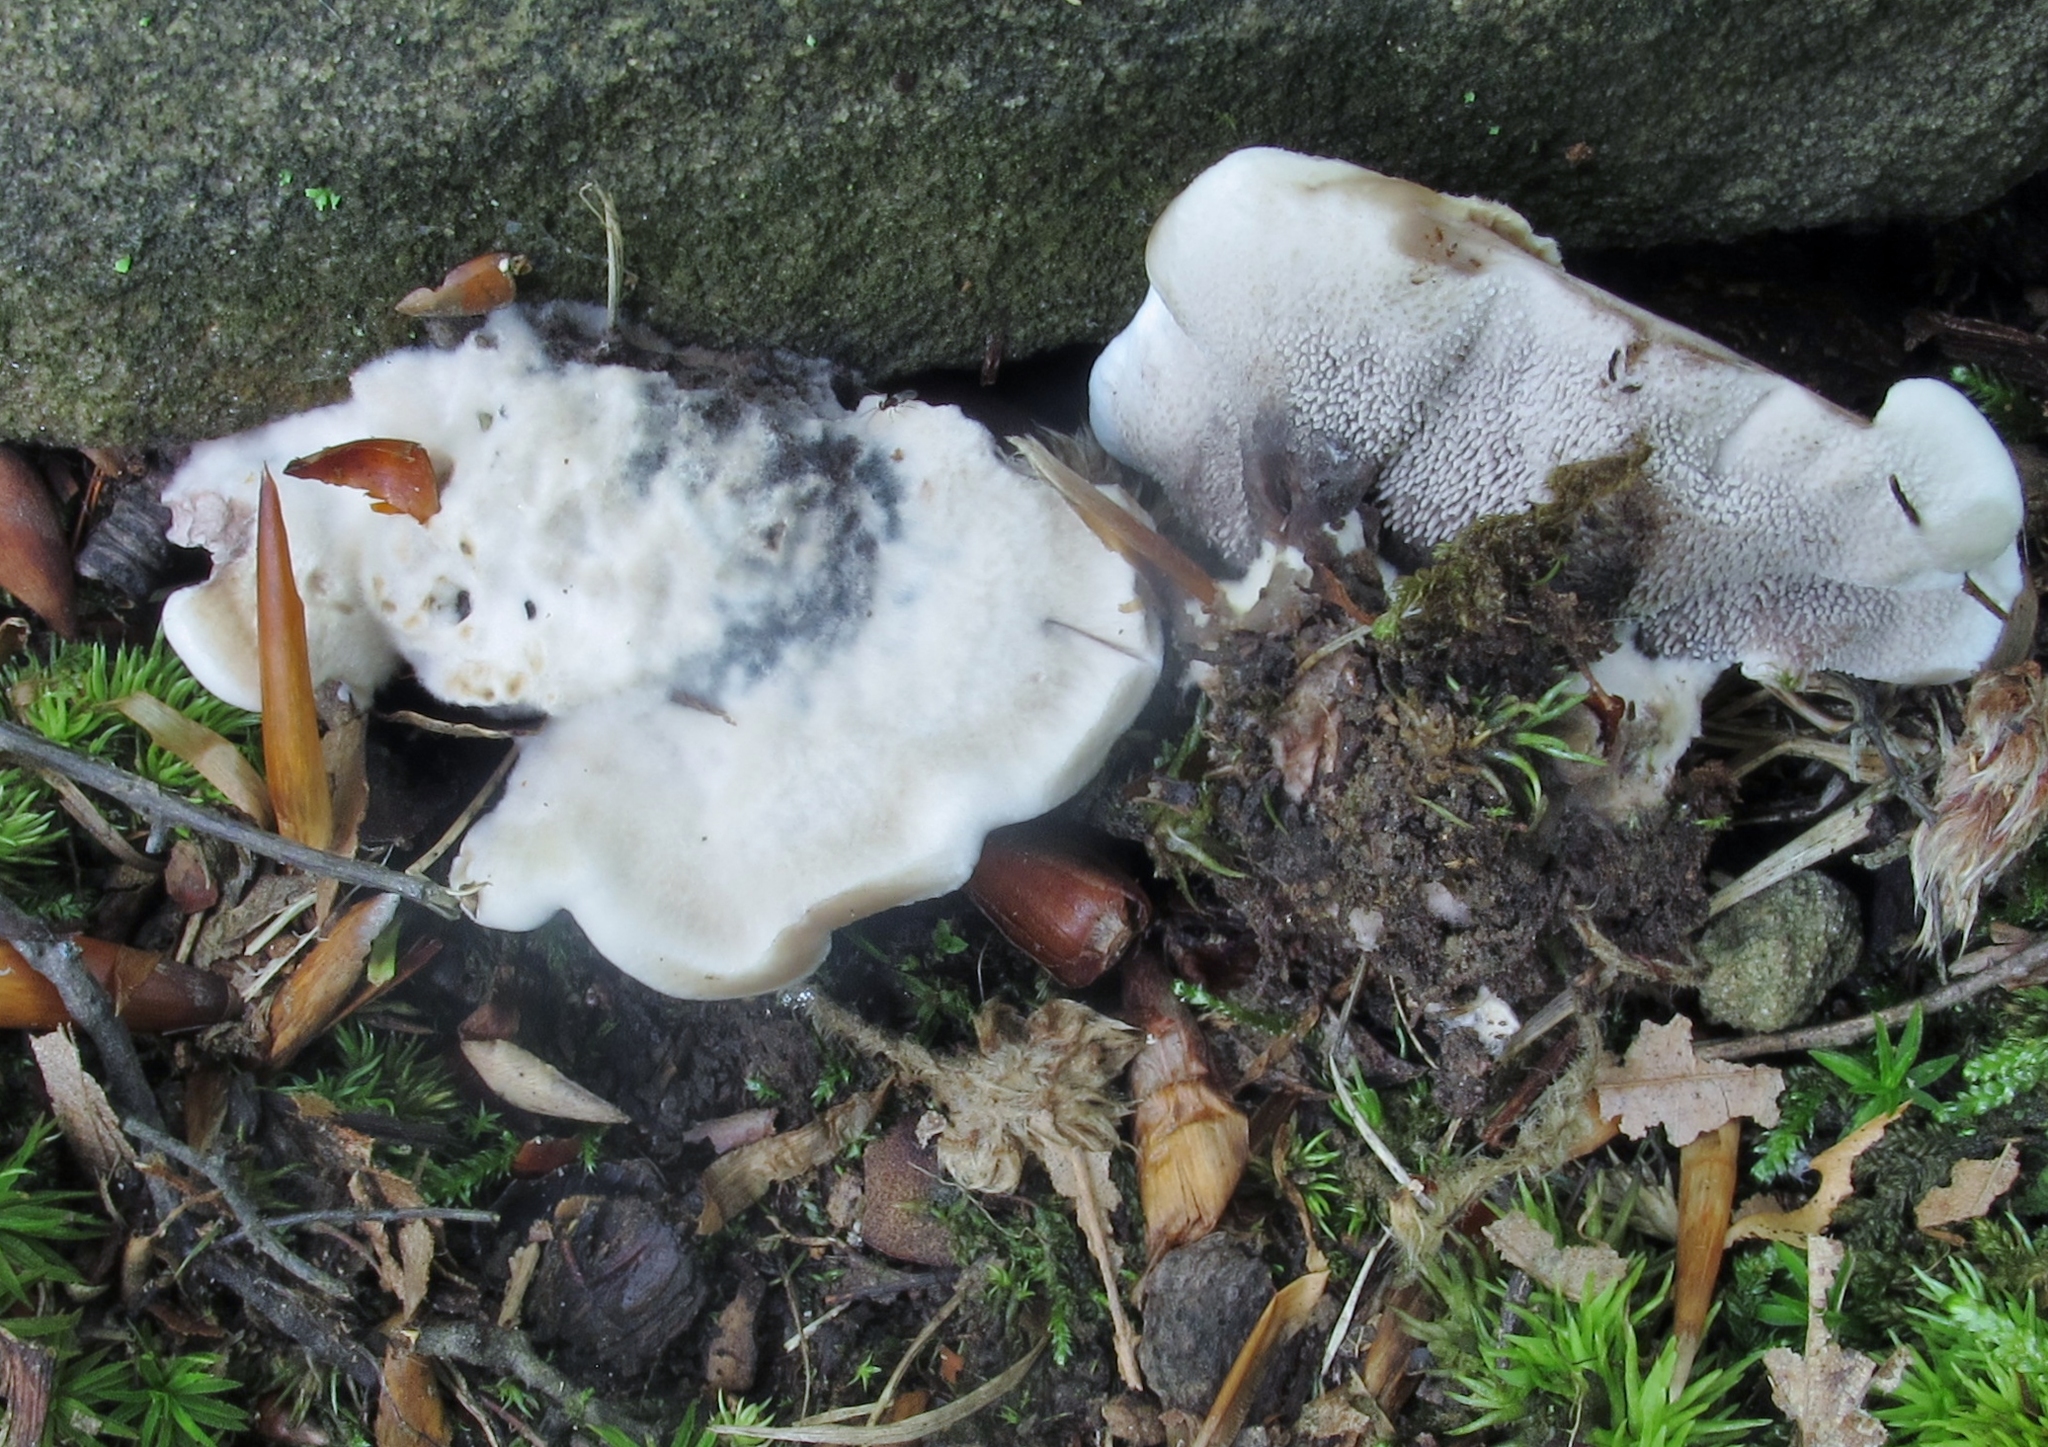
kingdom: Fungi
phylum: Basidiomycota
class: Agaricomycetes
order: Thelephorales
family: Thelephoraceae
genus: Phellodon
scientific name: Phellodon niger
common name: Black tooth
